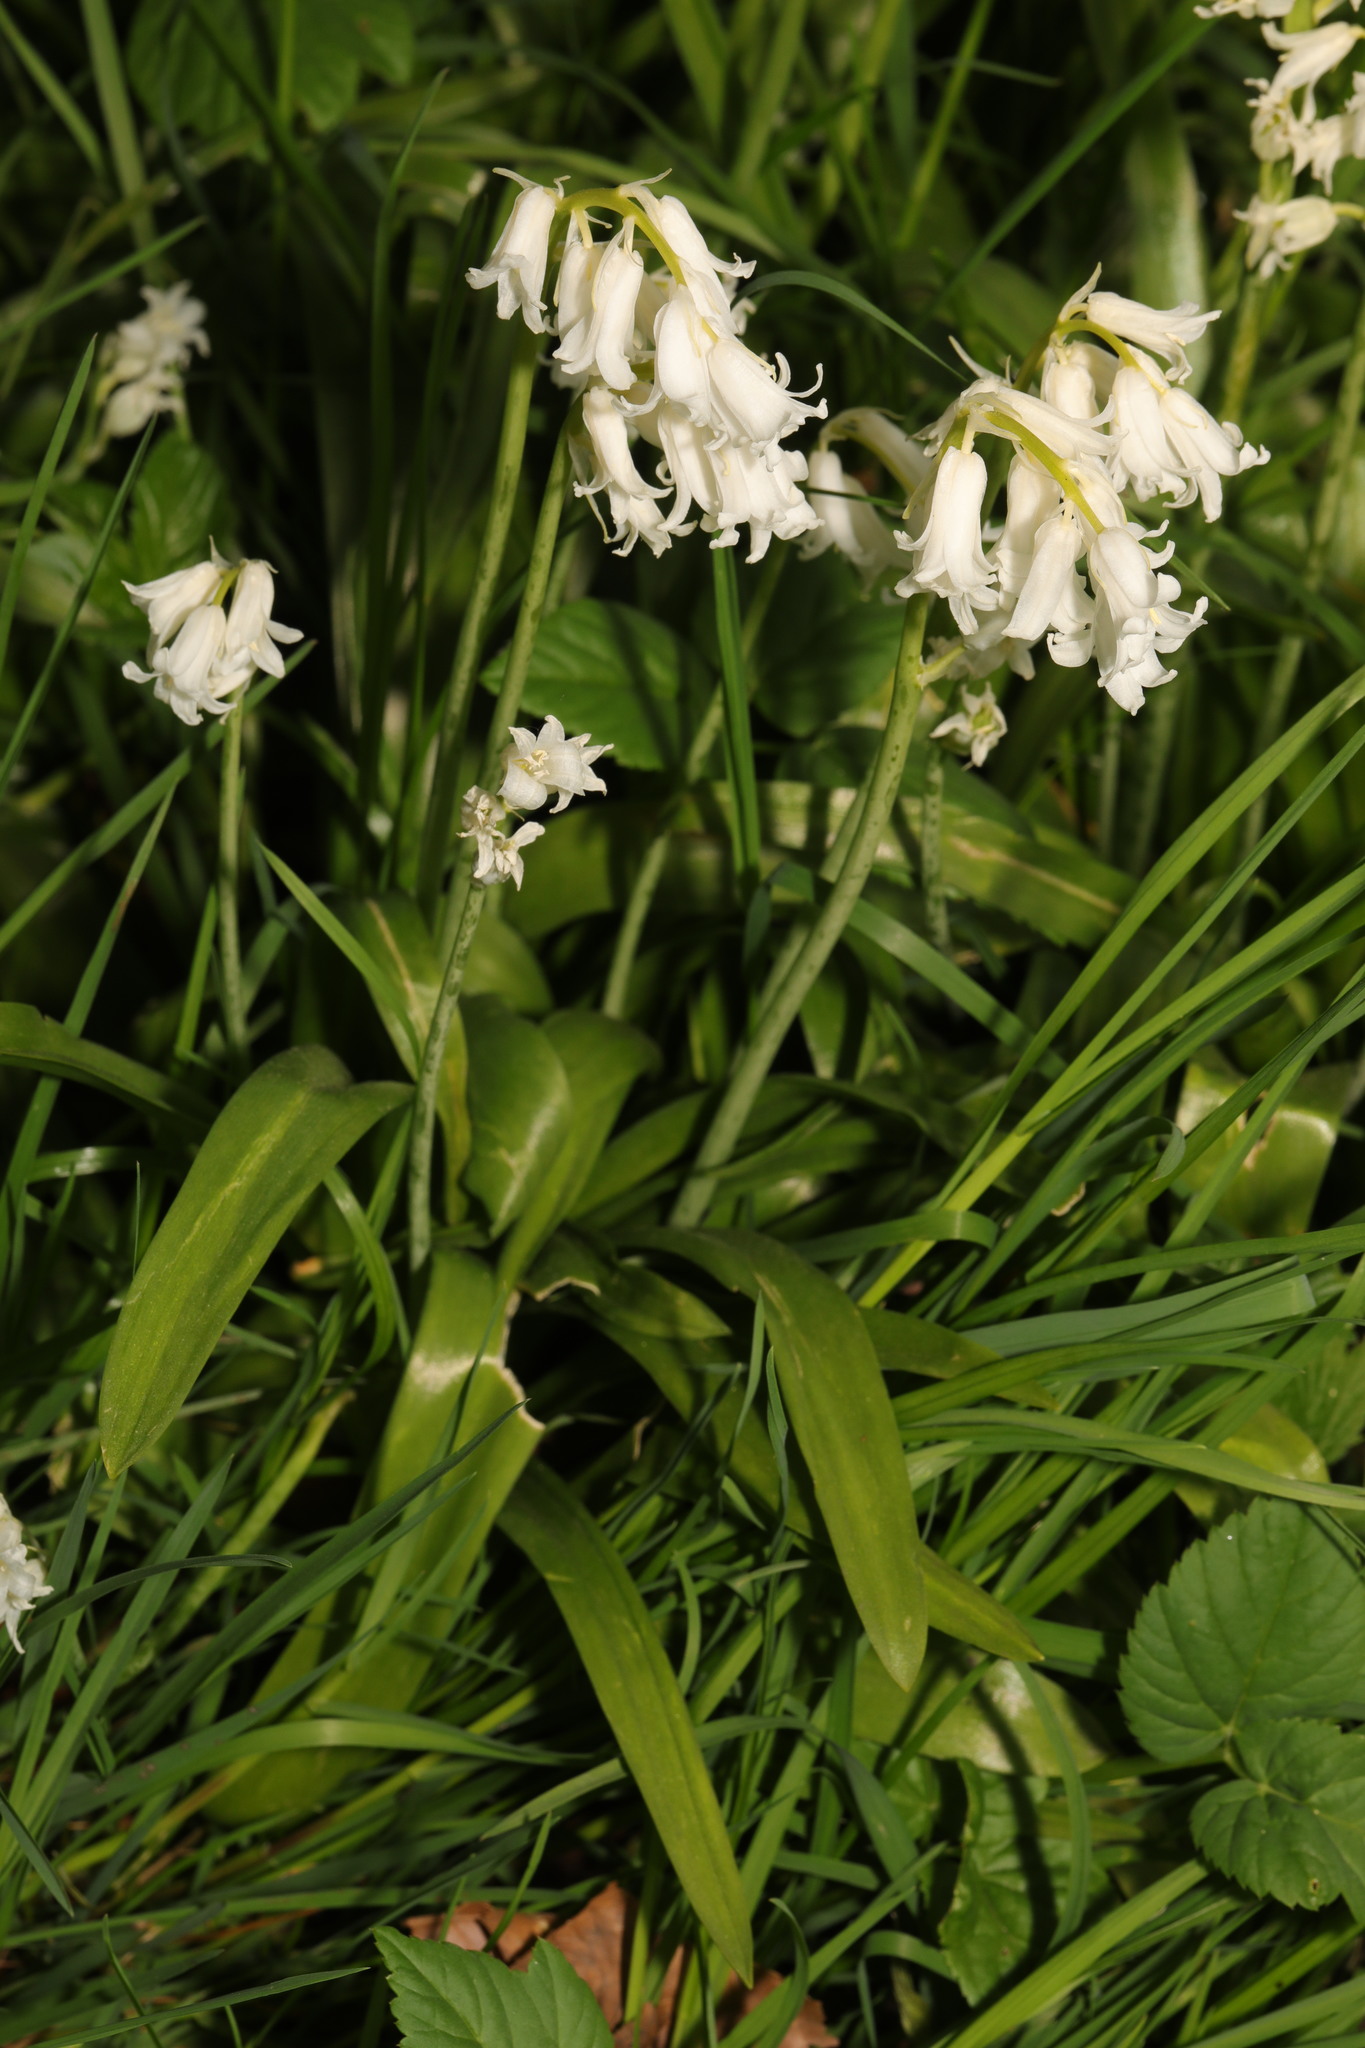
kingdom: Plantae
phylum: Tracheophyta
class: Liliopsida
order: Asparagales
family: Asparagaceae
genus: Hyacinthoides
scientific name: Hyacinthoides massartiana
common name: Hyacinthoides
